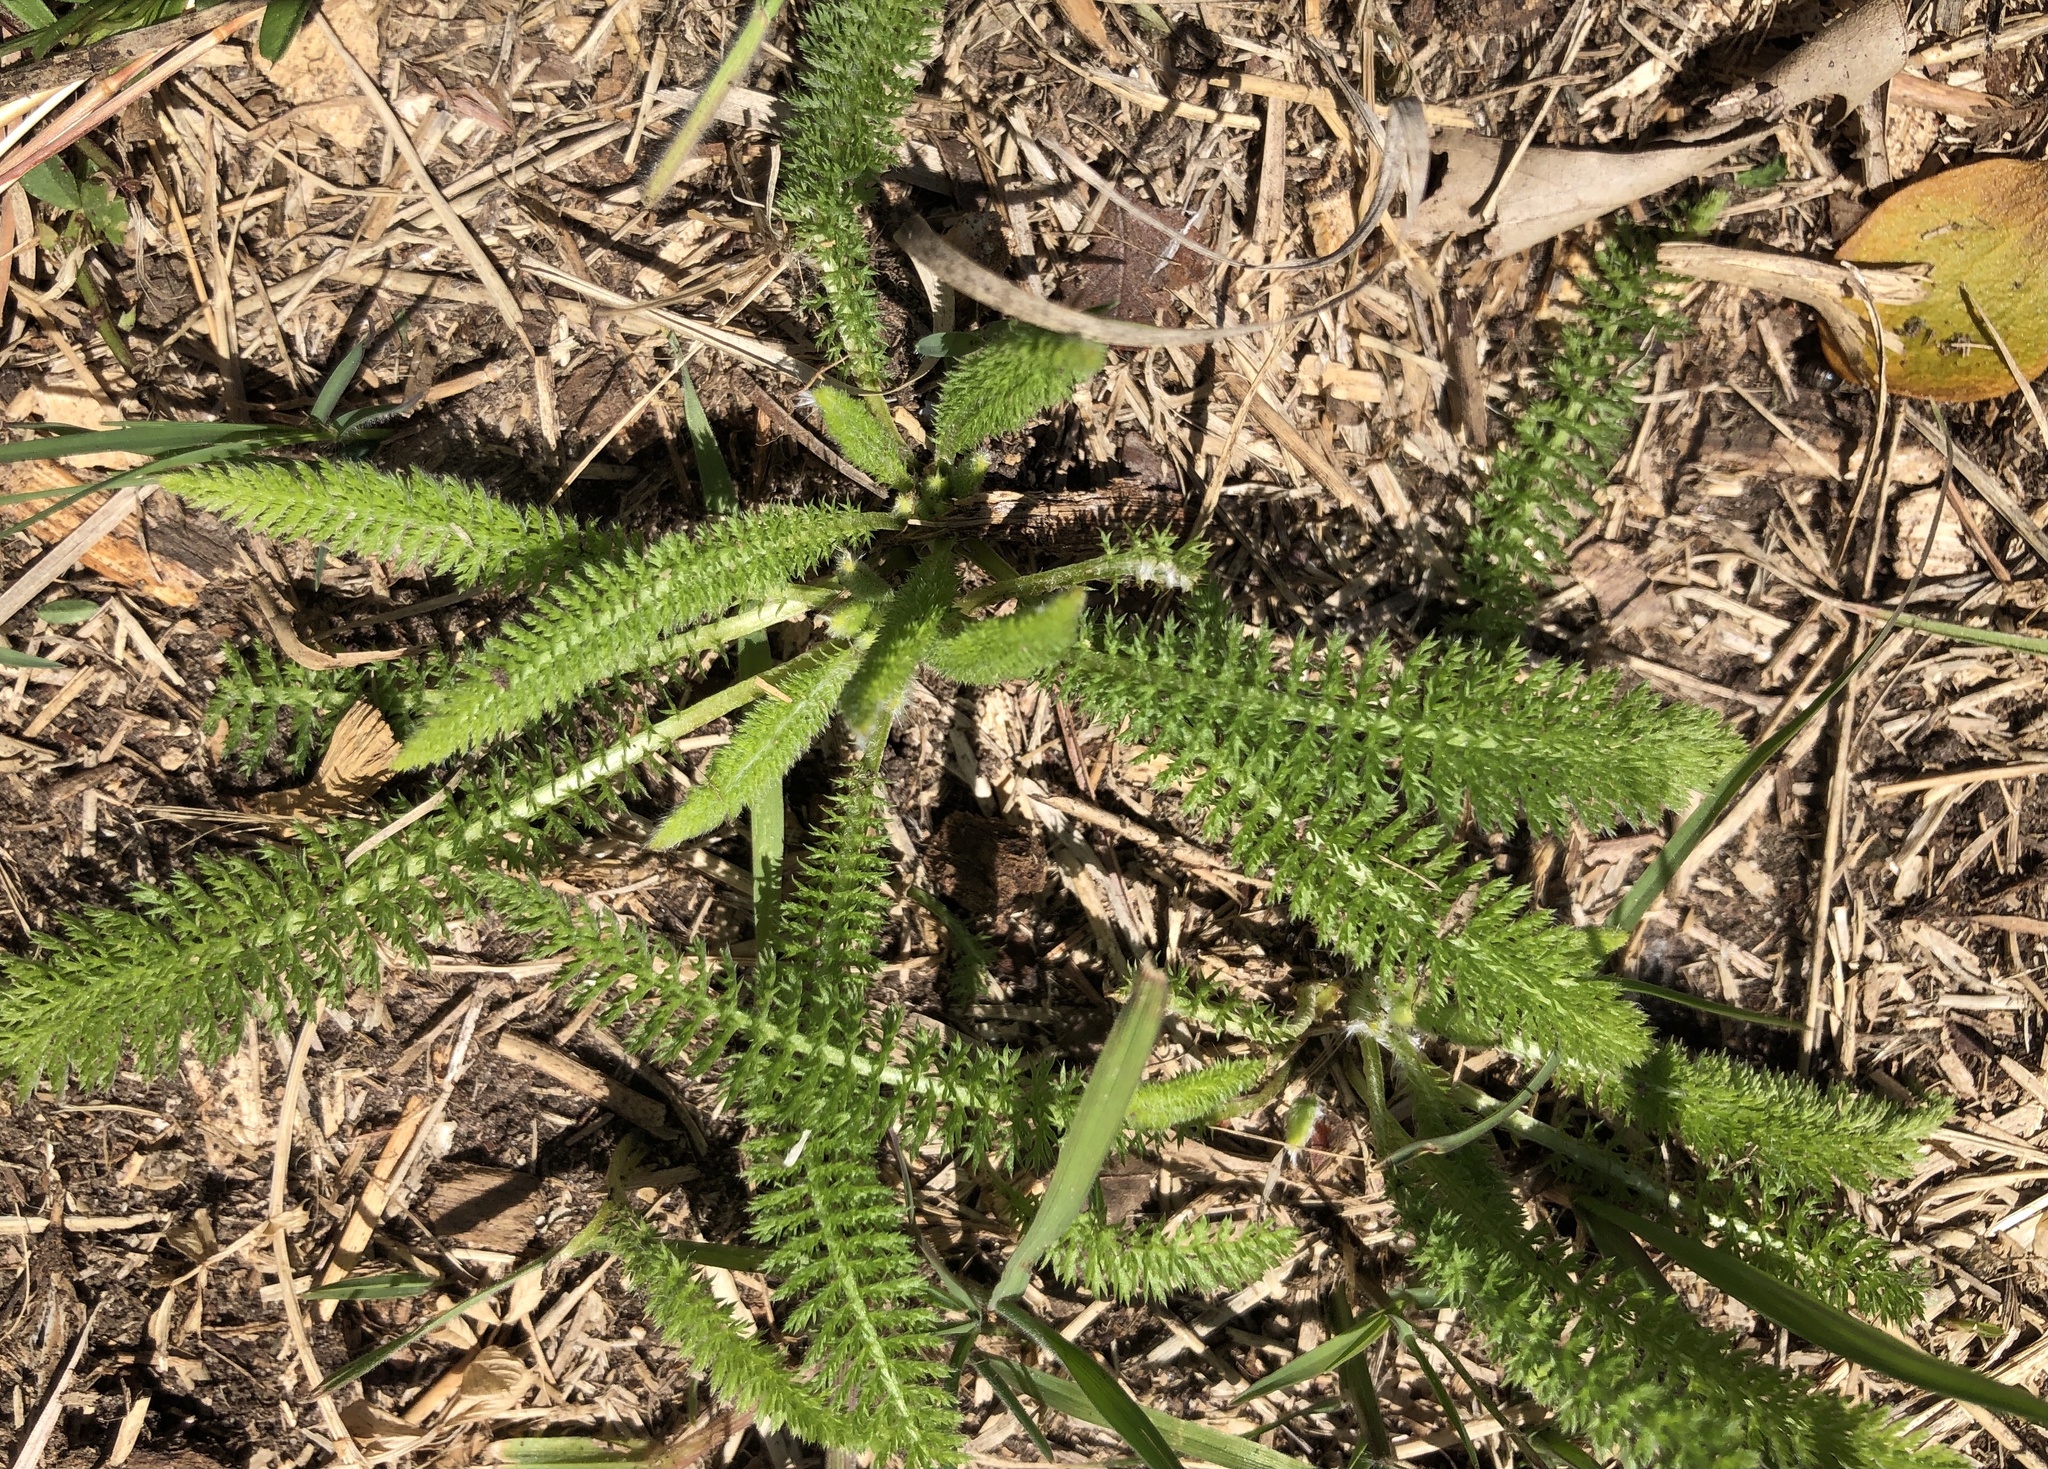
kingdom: Plantae
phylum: Tracheophyta
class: Magnoliopsida
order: Asterales
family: Asteraceae
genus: Achillea
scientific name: Achillea millefolium
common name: Yarrow
